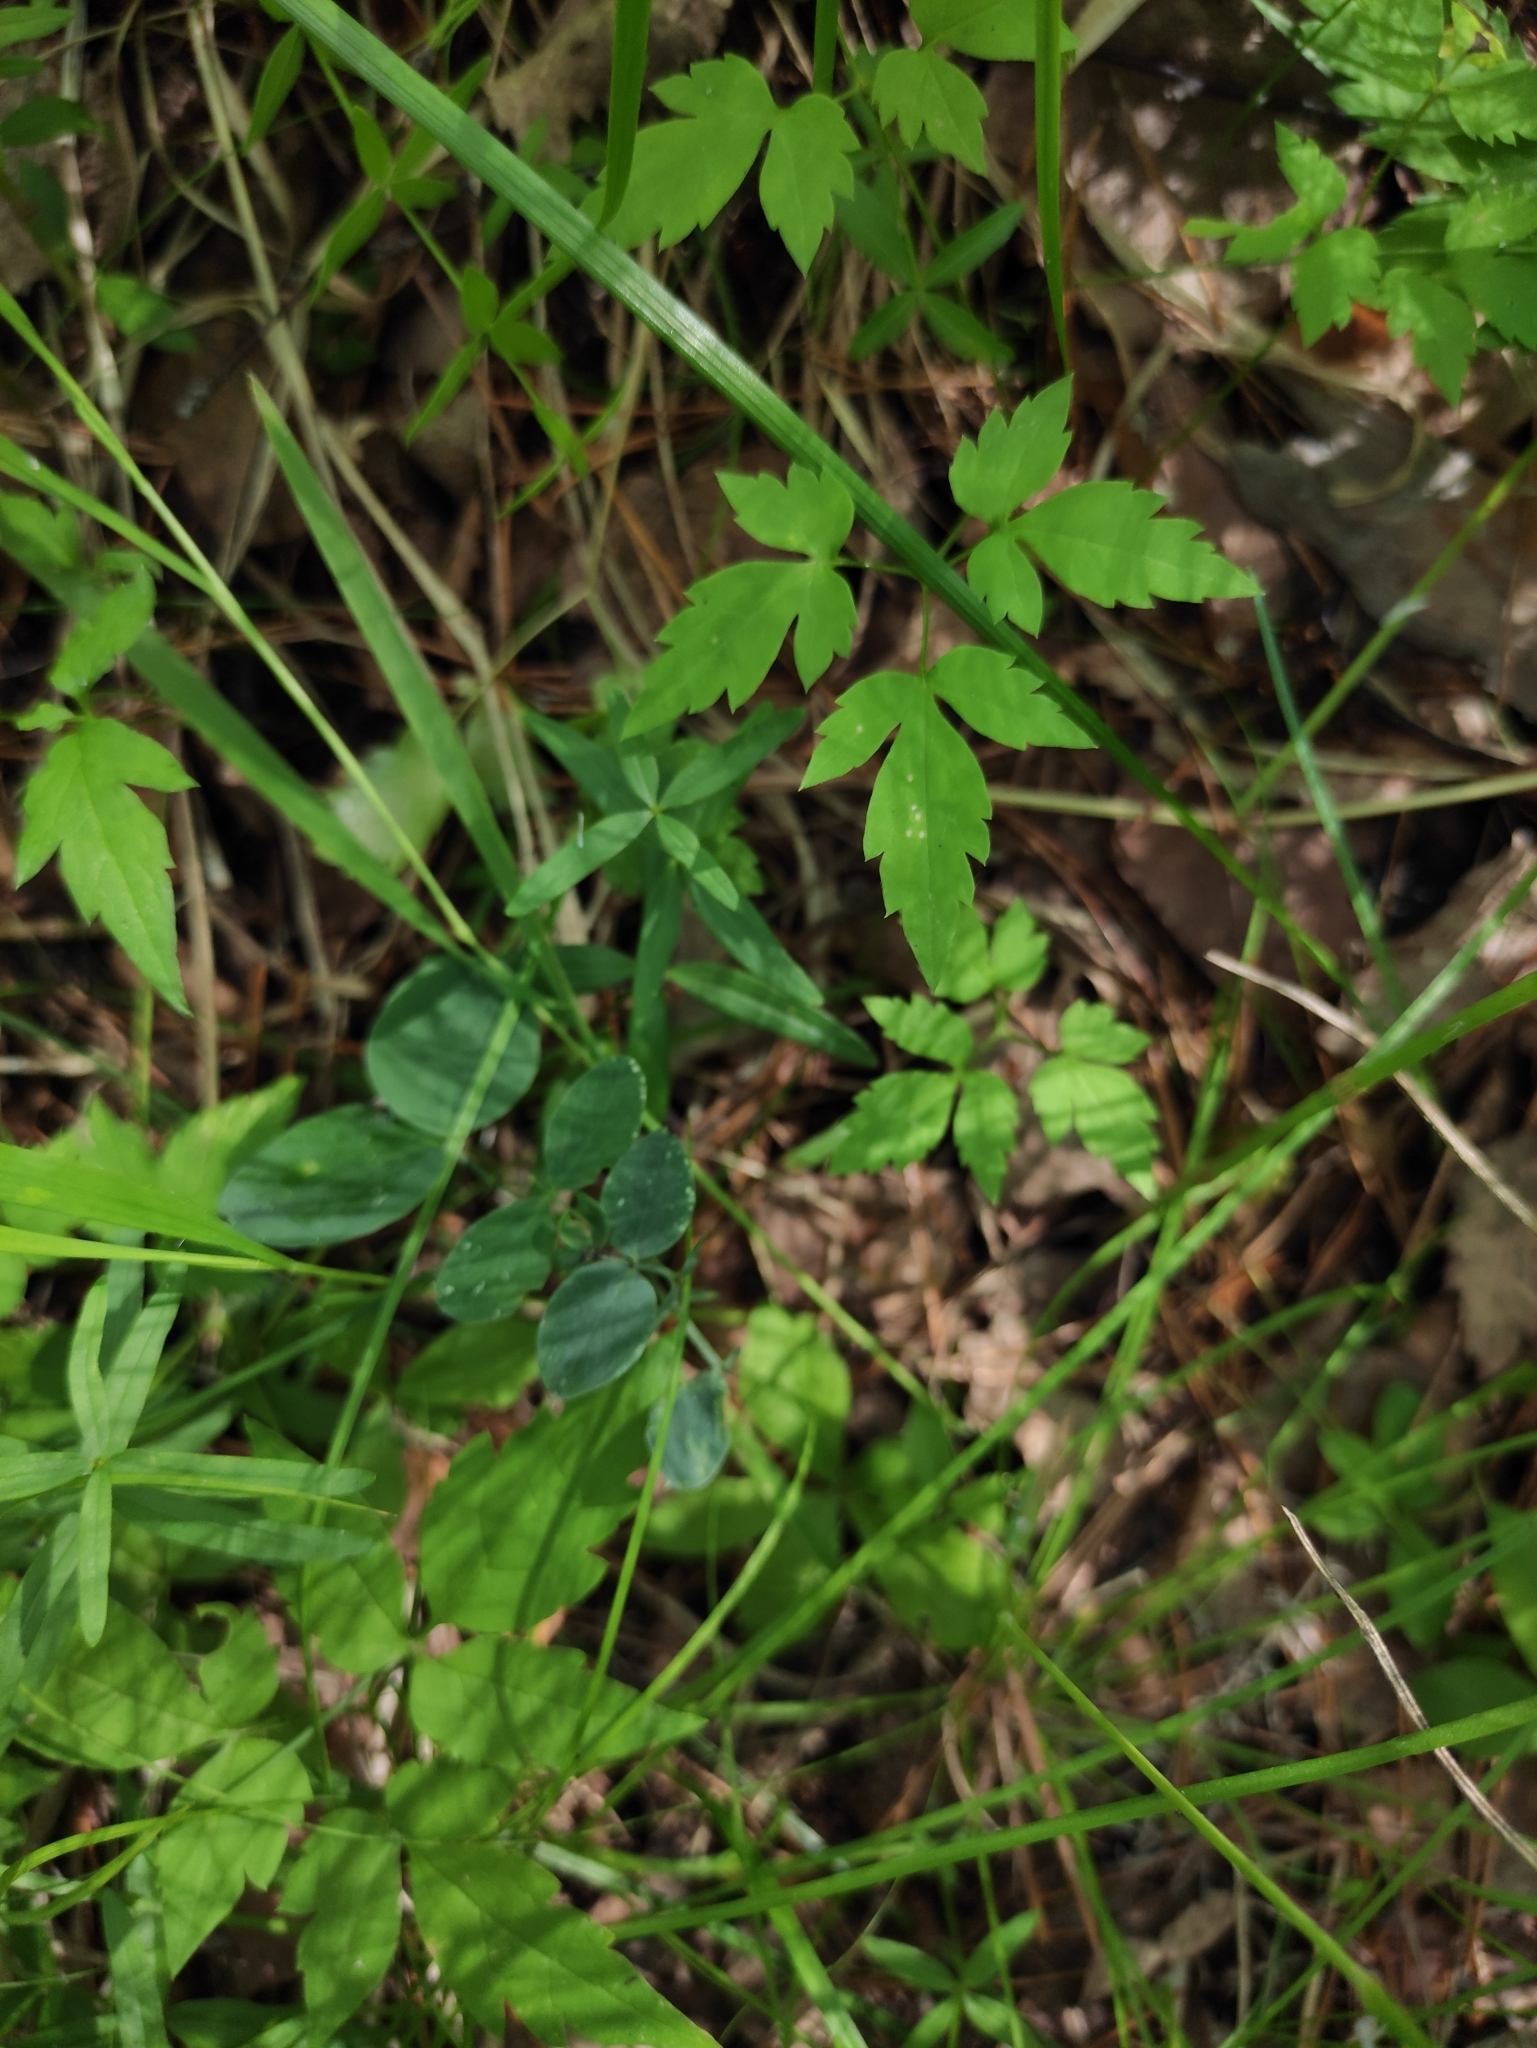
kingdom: Plantae
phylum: Tracheophyta
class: Magnoliopsida
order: Ranunculales
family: Ranunculaceae
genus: Clematis
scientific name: Clematis sibirica
